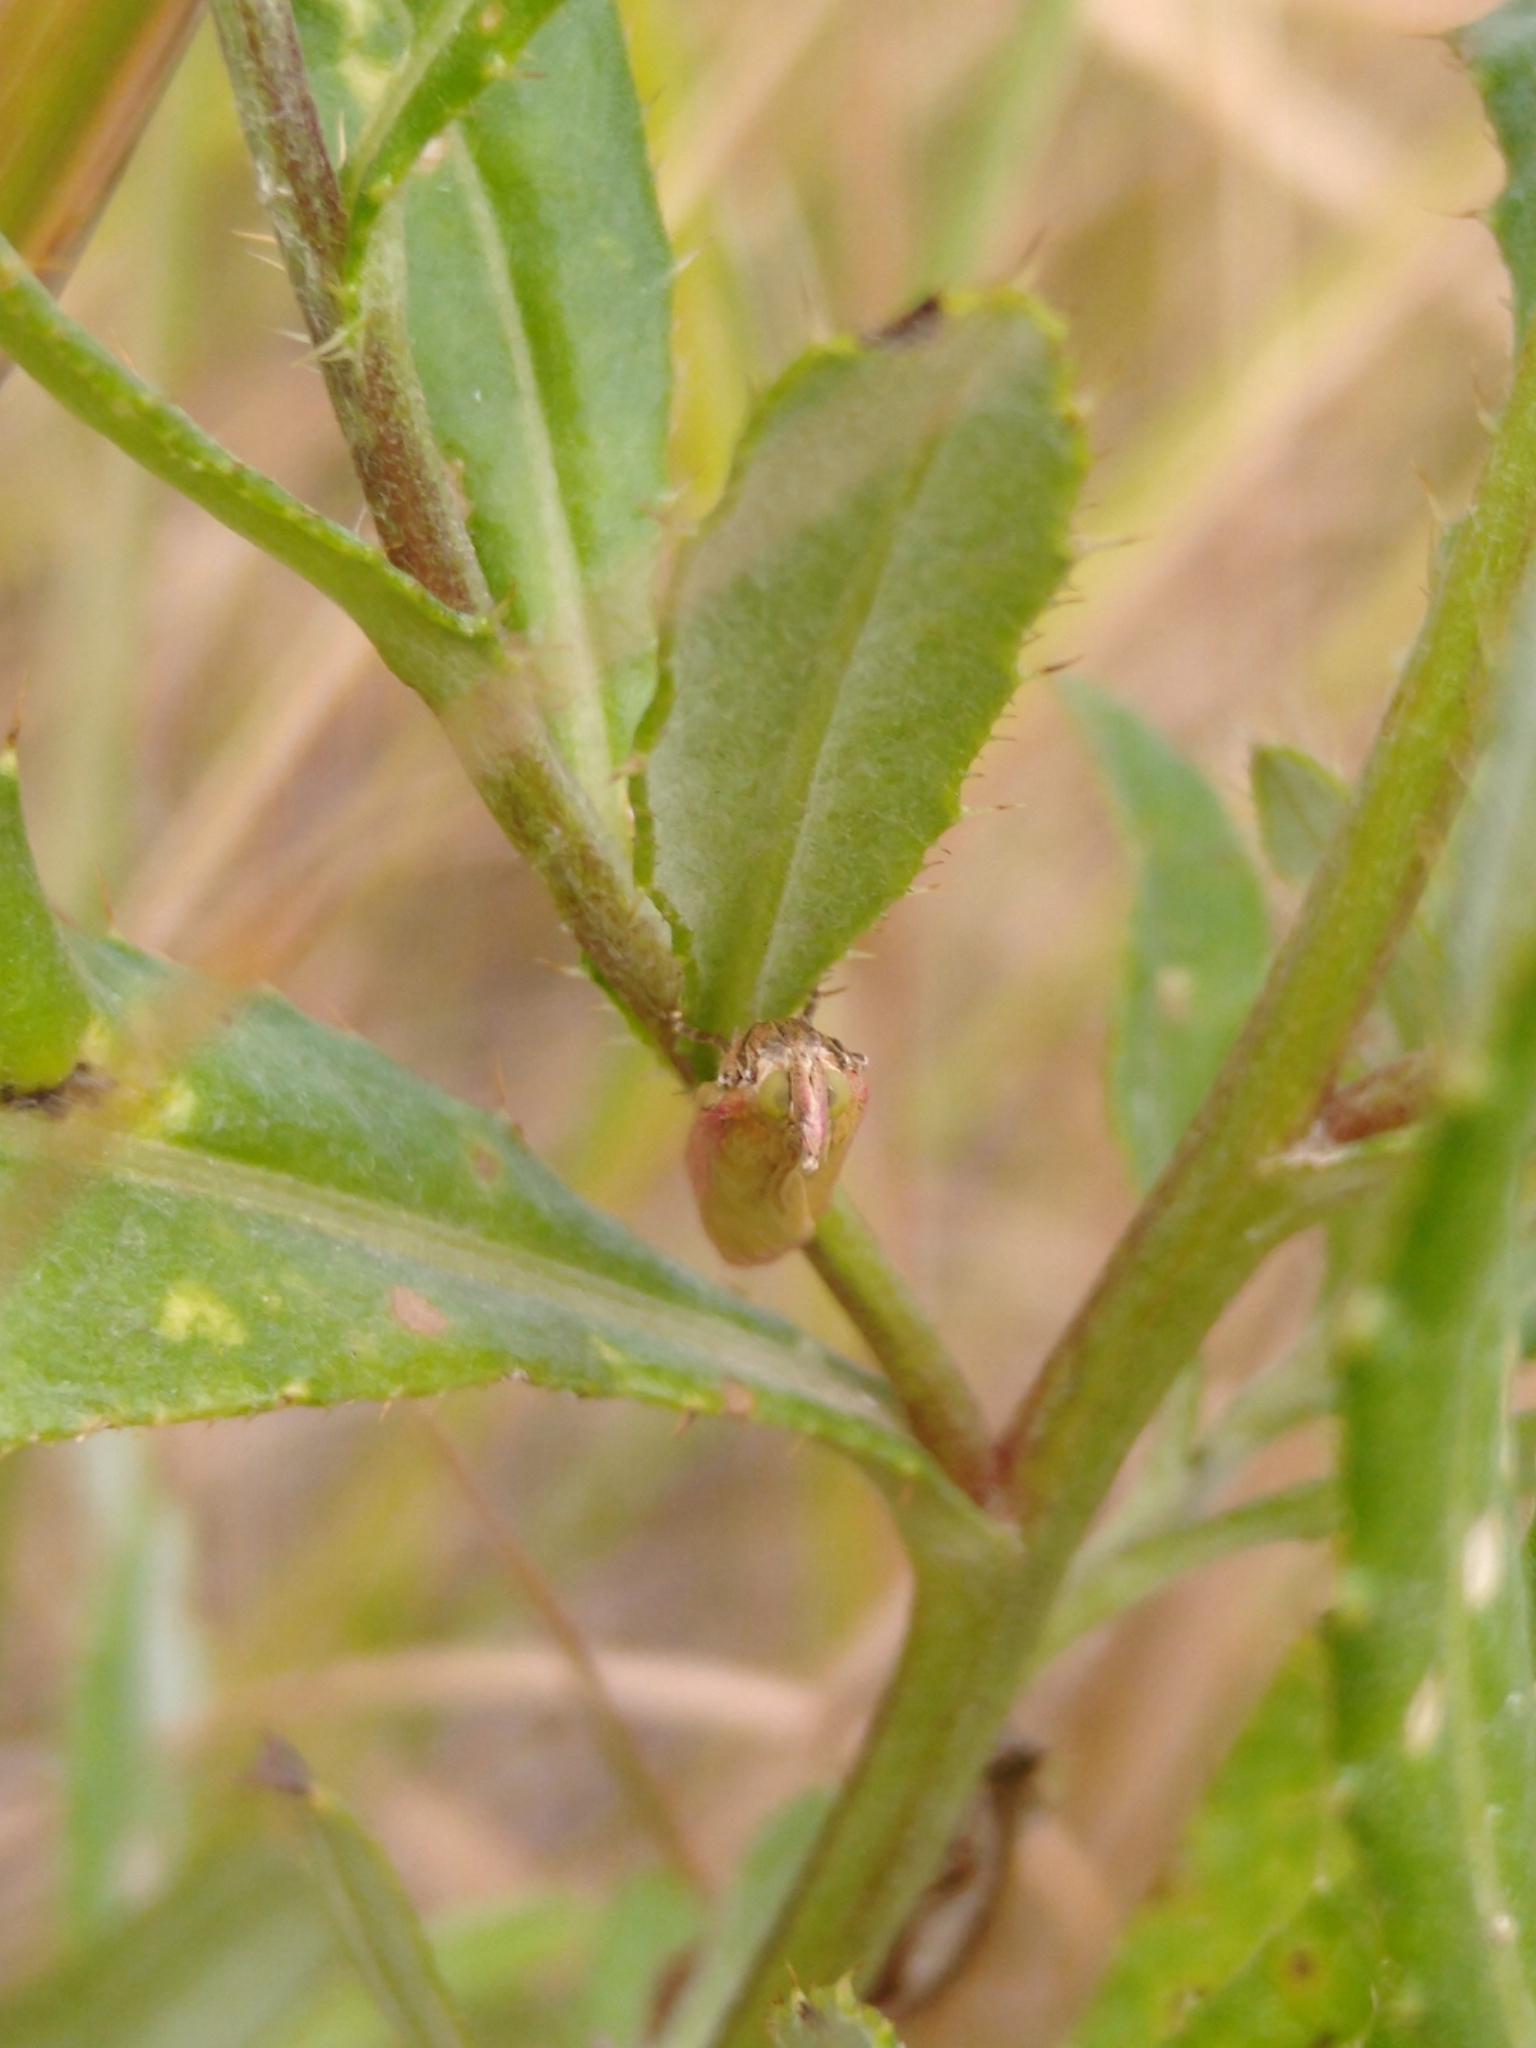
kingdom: Animalia
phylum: Arthropoda
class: Insecta
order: Lepidoptera
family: Pyralidae
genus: Oncocera
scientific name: Oncocera semirubella
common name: Rosy-striped knot-horn
